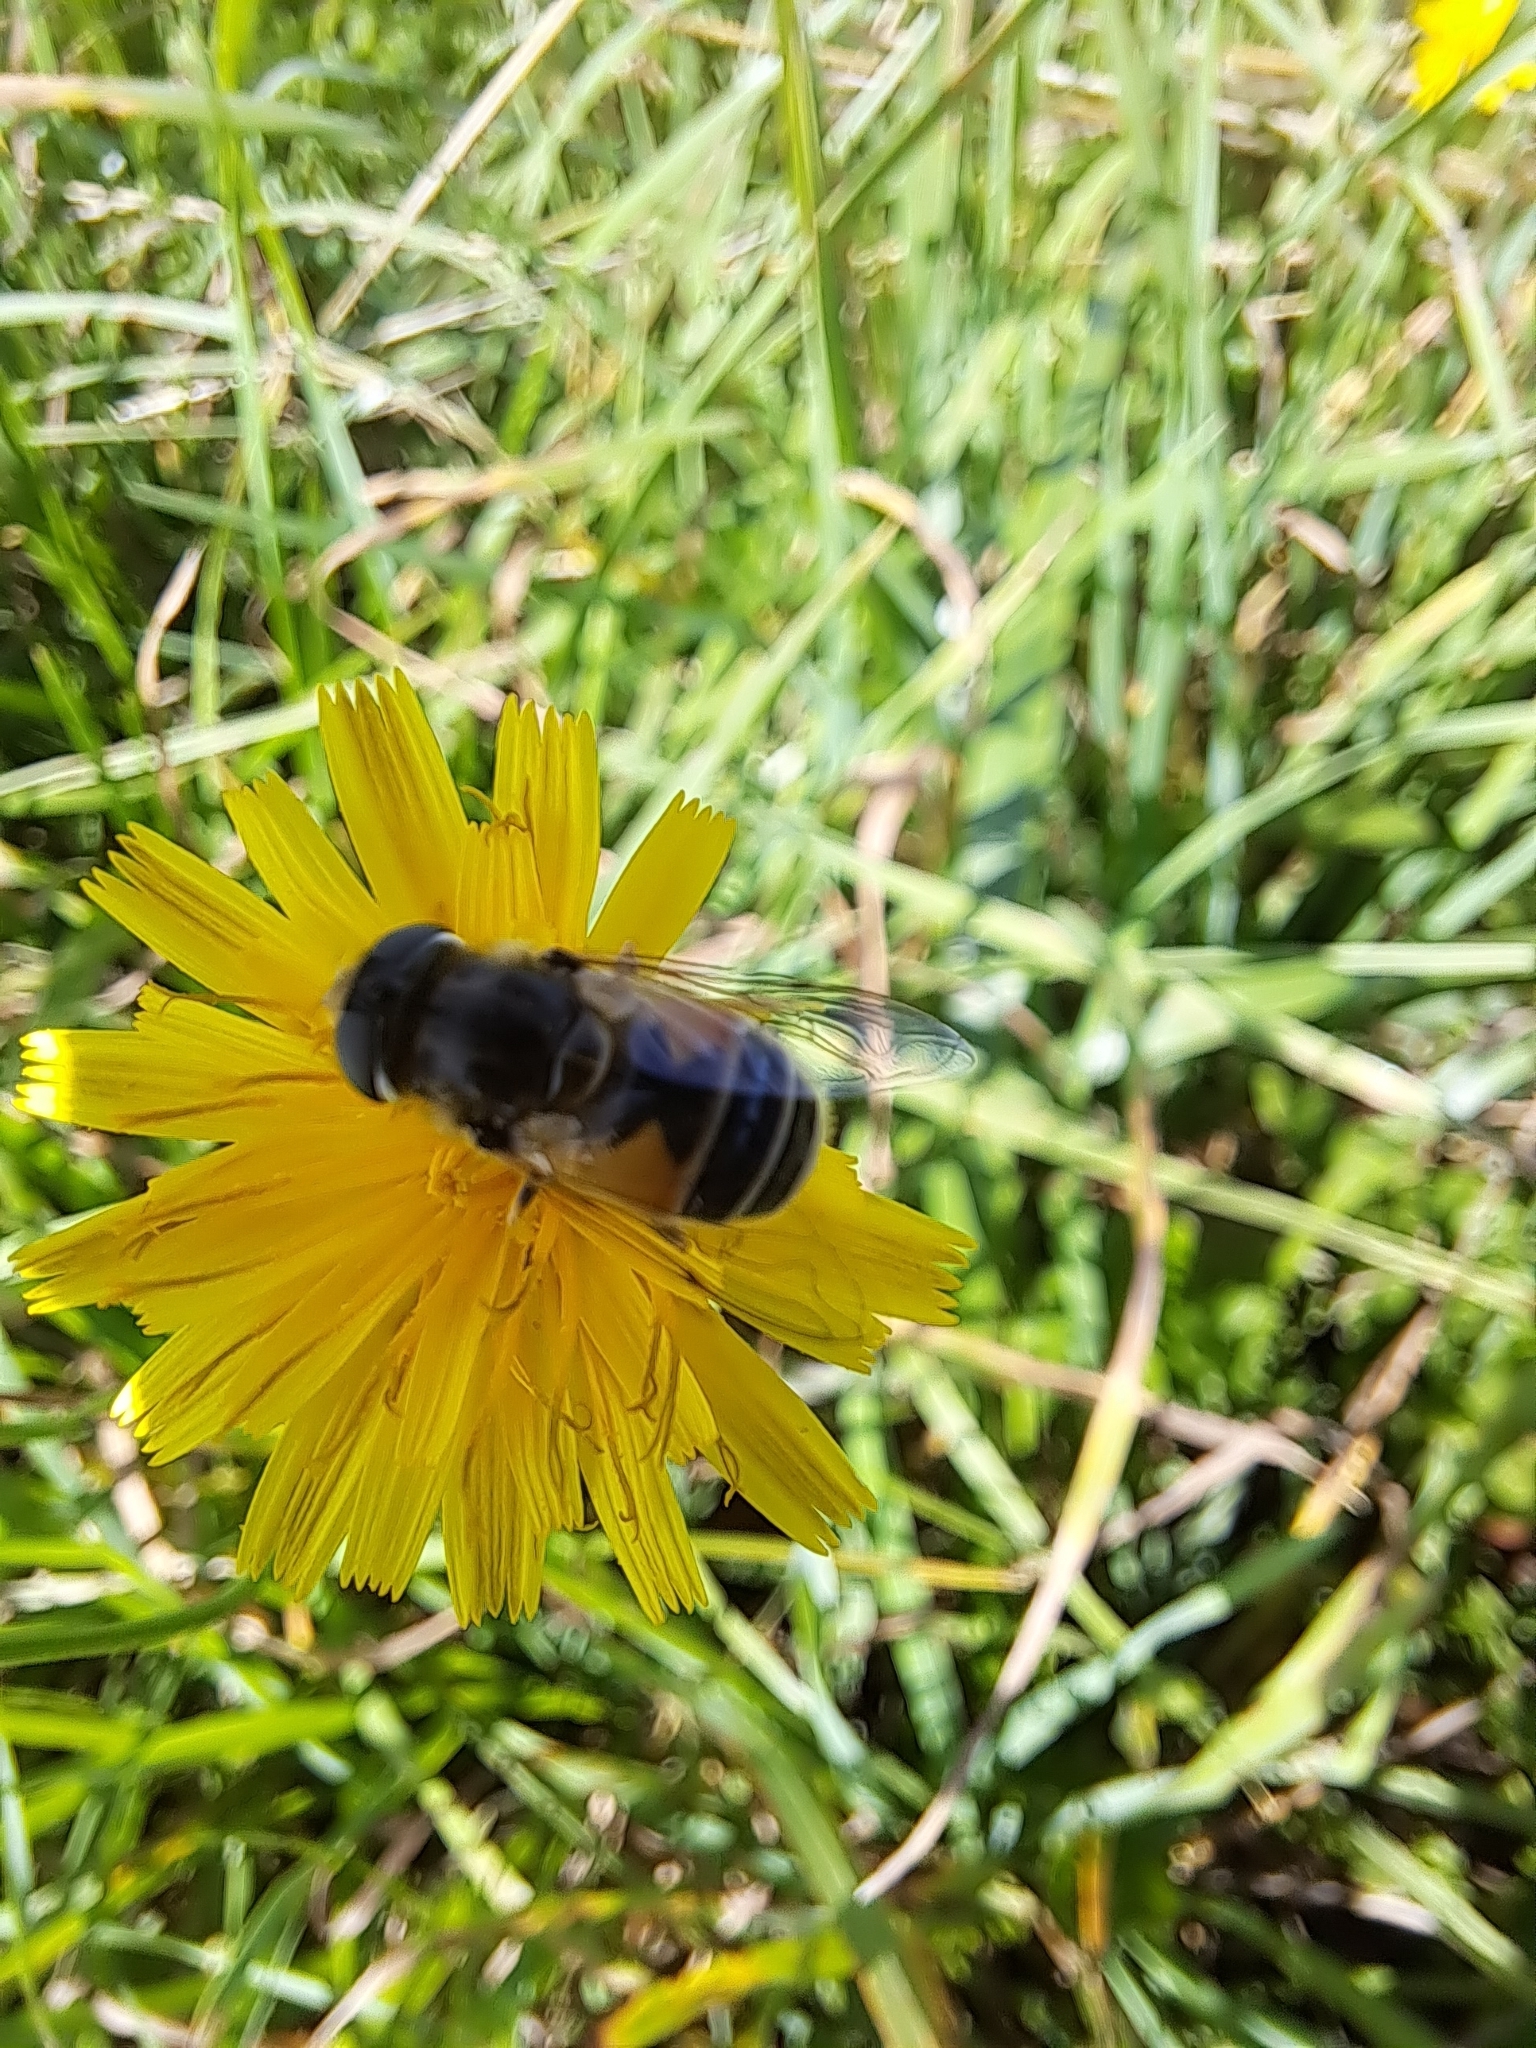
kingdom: Animalia
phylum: Arthropoda
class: Insecta
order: Diptera
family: Syrphidae
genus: Eristalis
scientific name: Eristalis arbustorum
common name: Hover fly
